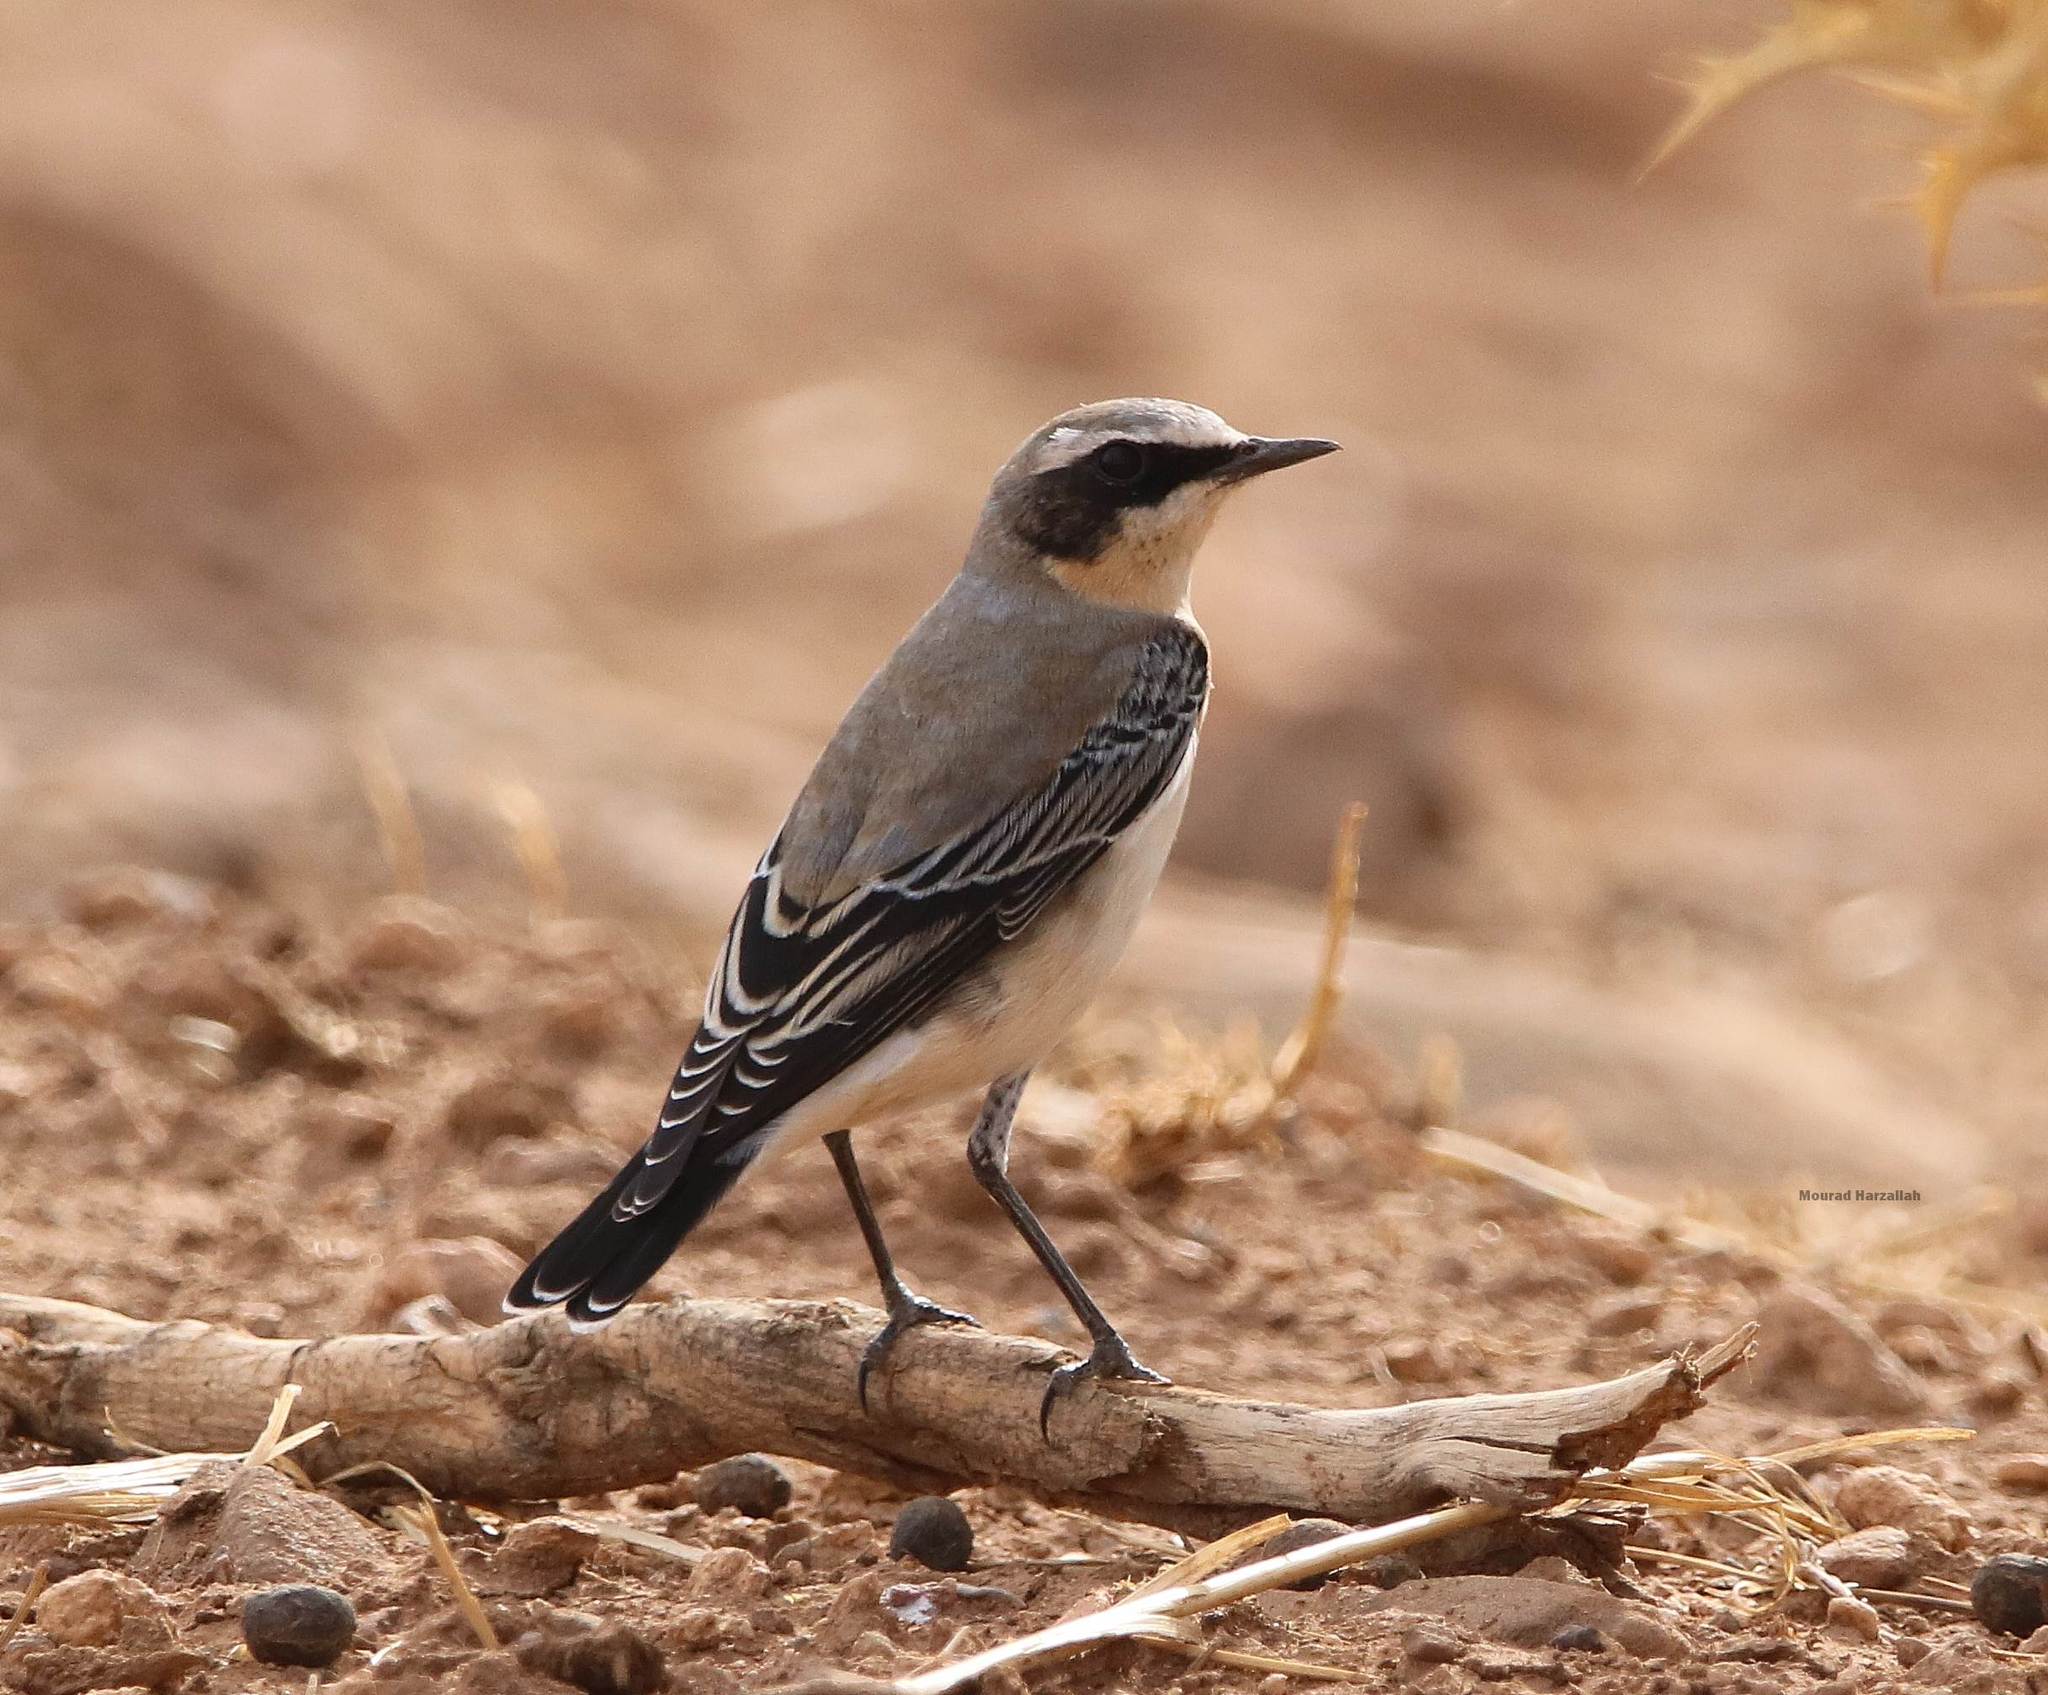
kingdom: Animalia
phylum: Chordata
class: Aves
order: Passeriformes
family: Muscicapidae
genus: Oenanthe
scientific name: Oenanthe oenanthe
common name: Northern wheatear
